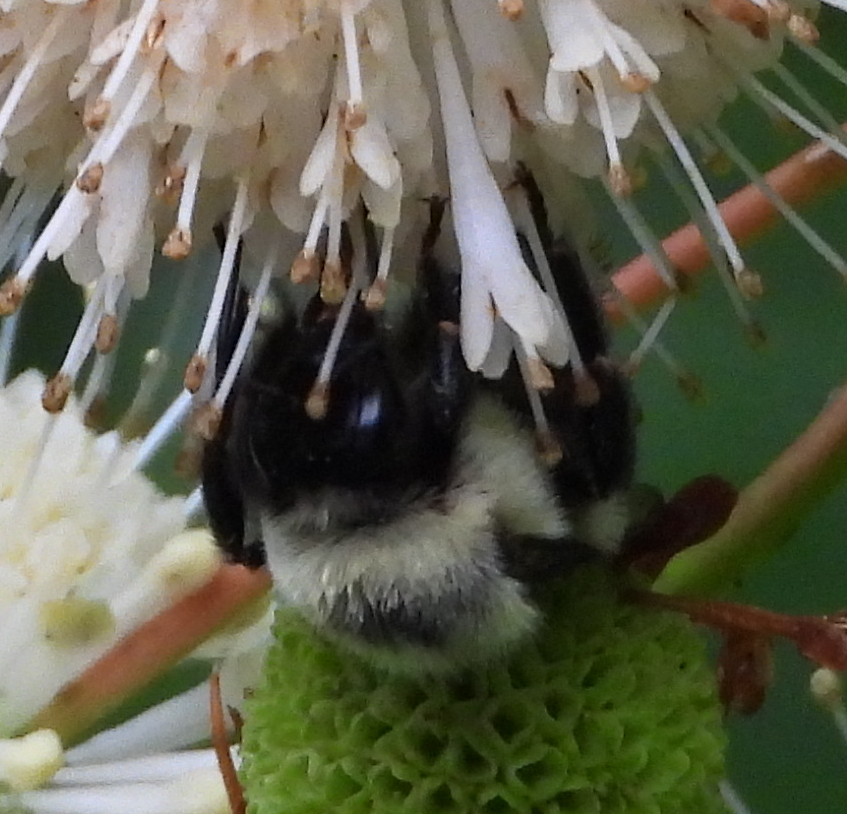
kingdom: Animalia
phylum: Arthropoda
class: Insecta
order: Hymenoptera
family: Apidae
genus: Bombus
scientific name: Bombus impatiens
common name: Common eastern bumble bee
